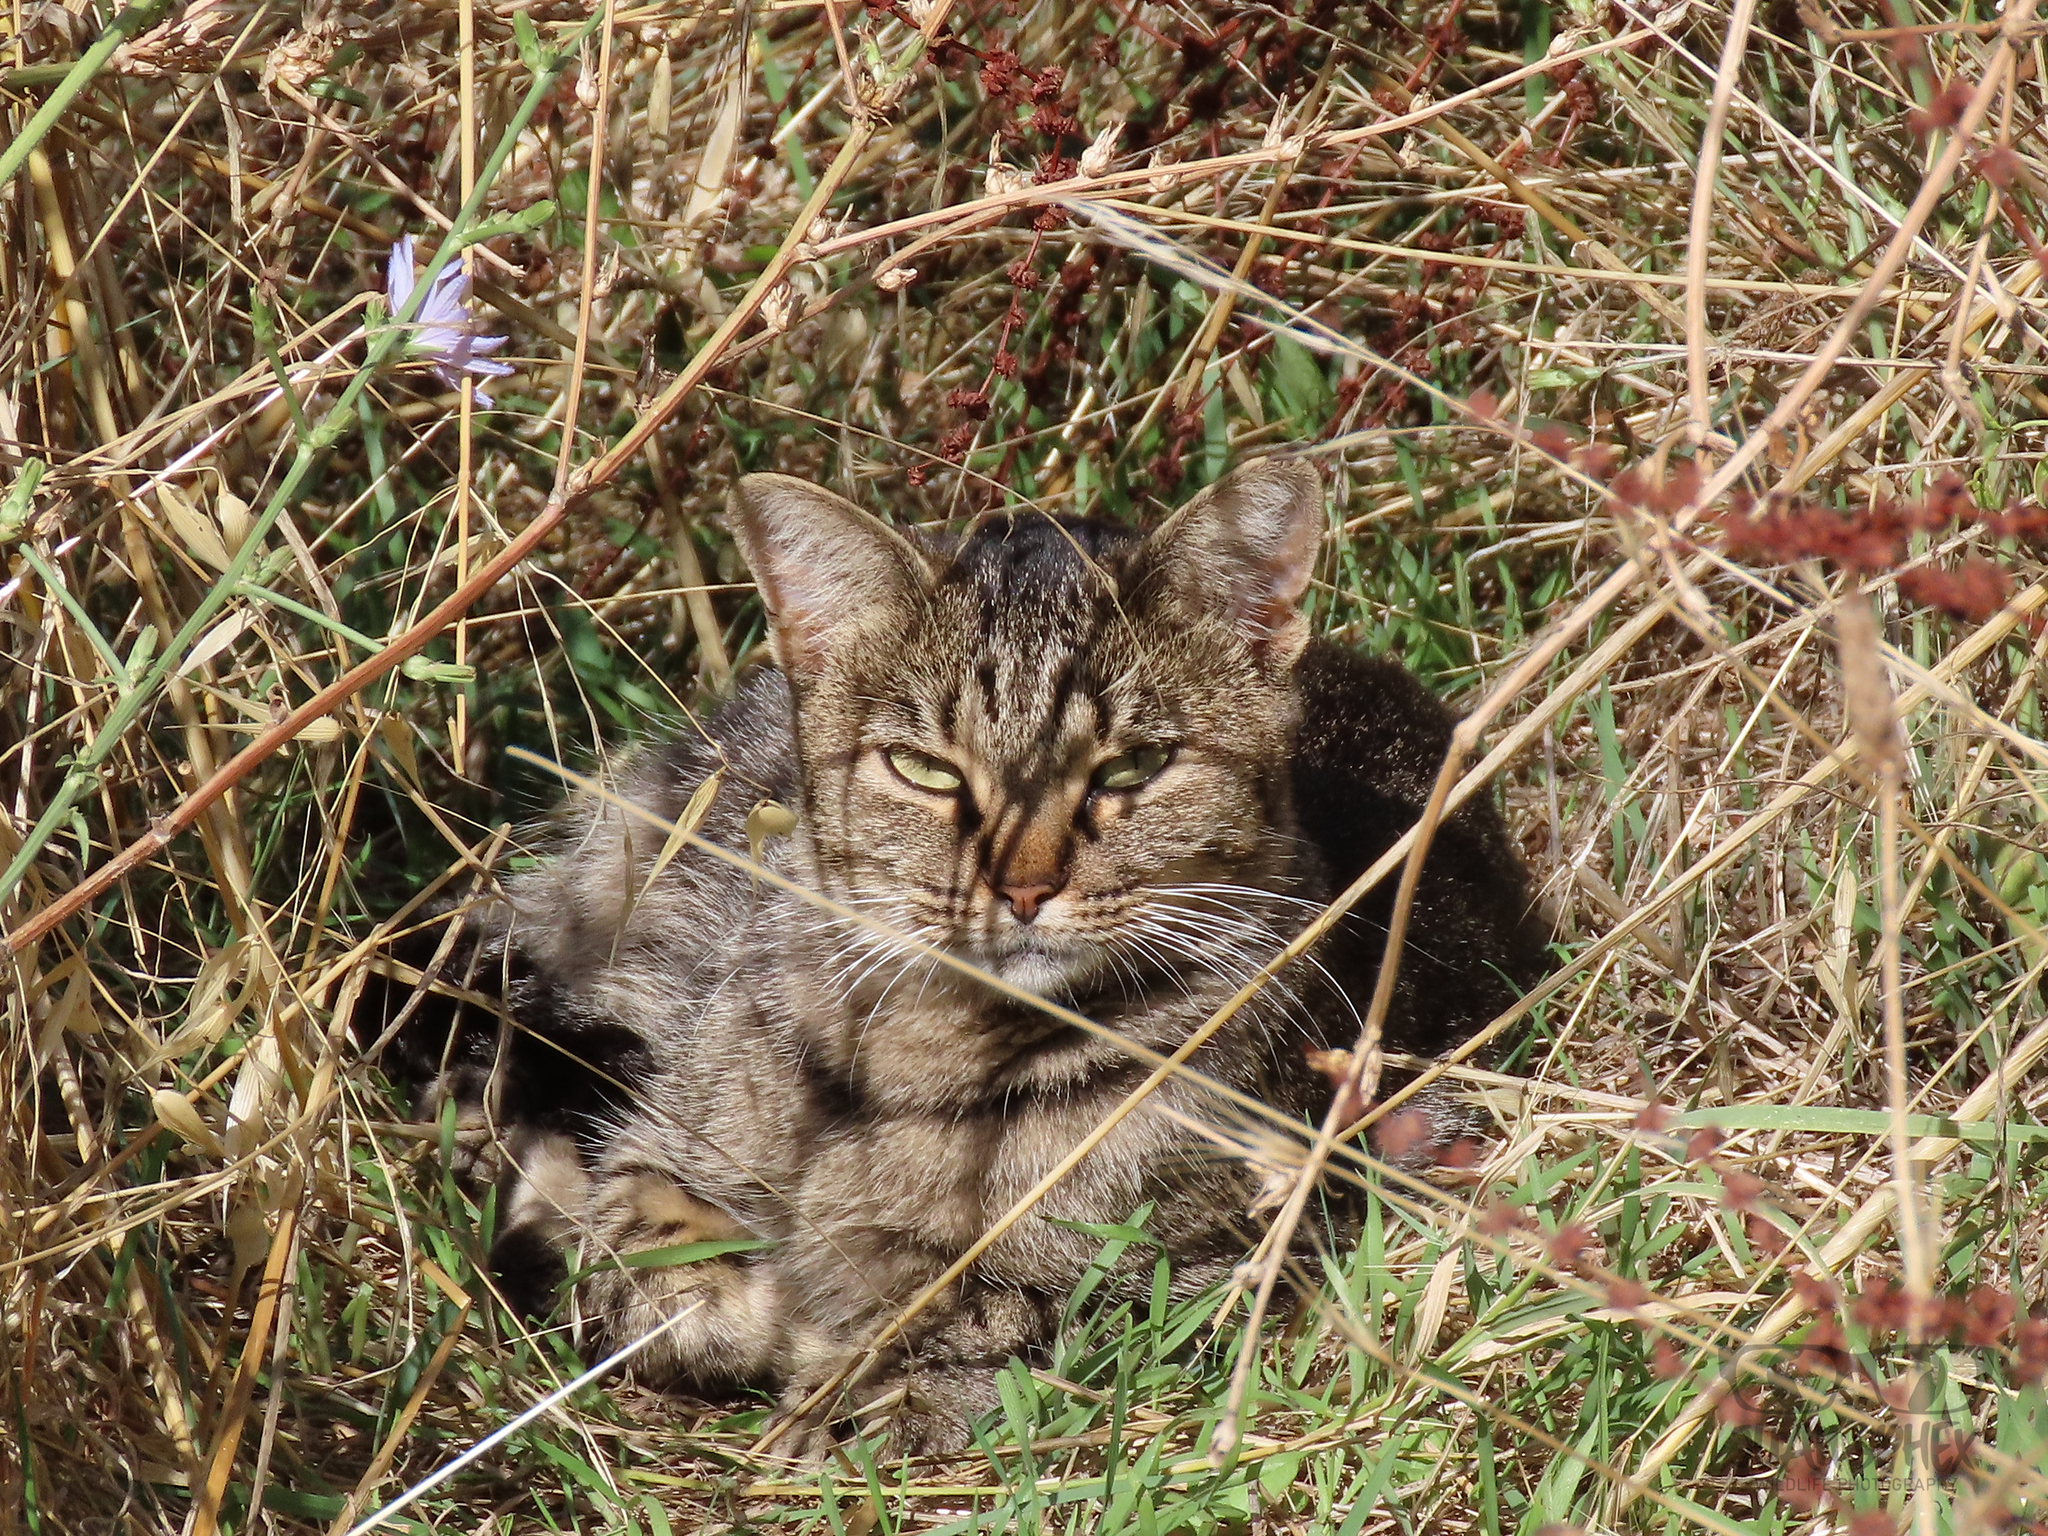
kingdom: Animalia
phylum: Chordata
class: Mammalia
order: Carnivora
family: Felidae
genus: Felis
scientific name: Felis catus
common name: Domestic cat
